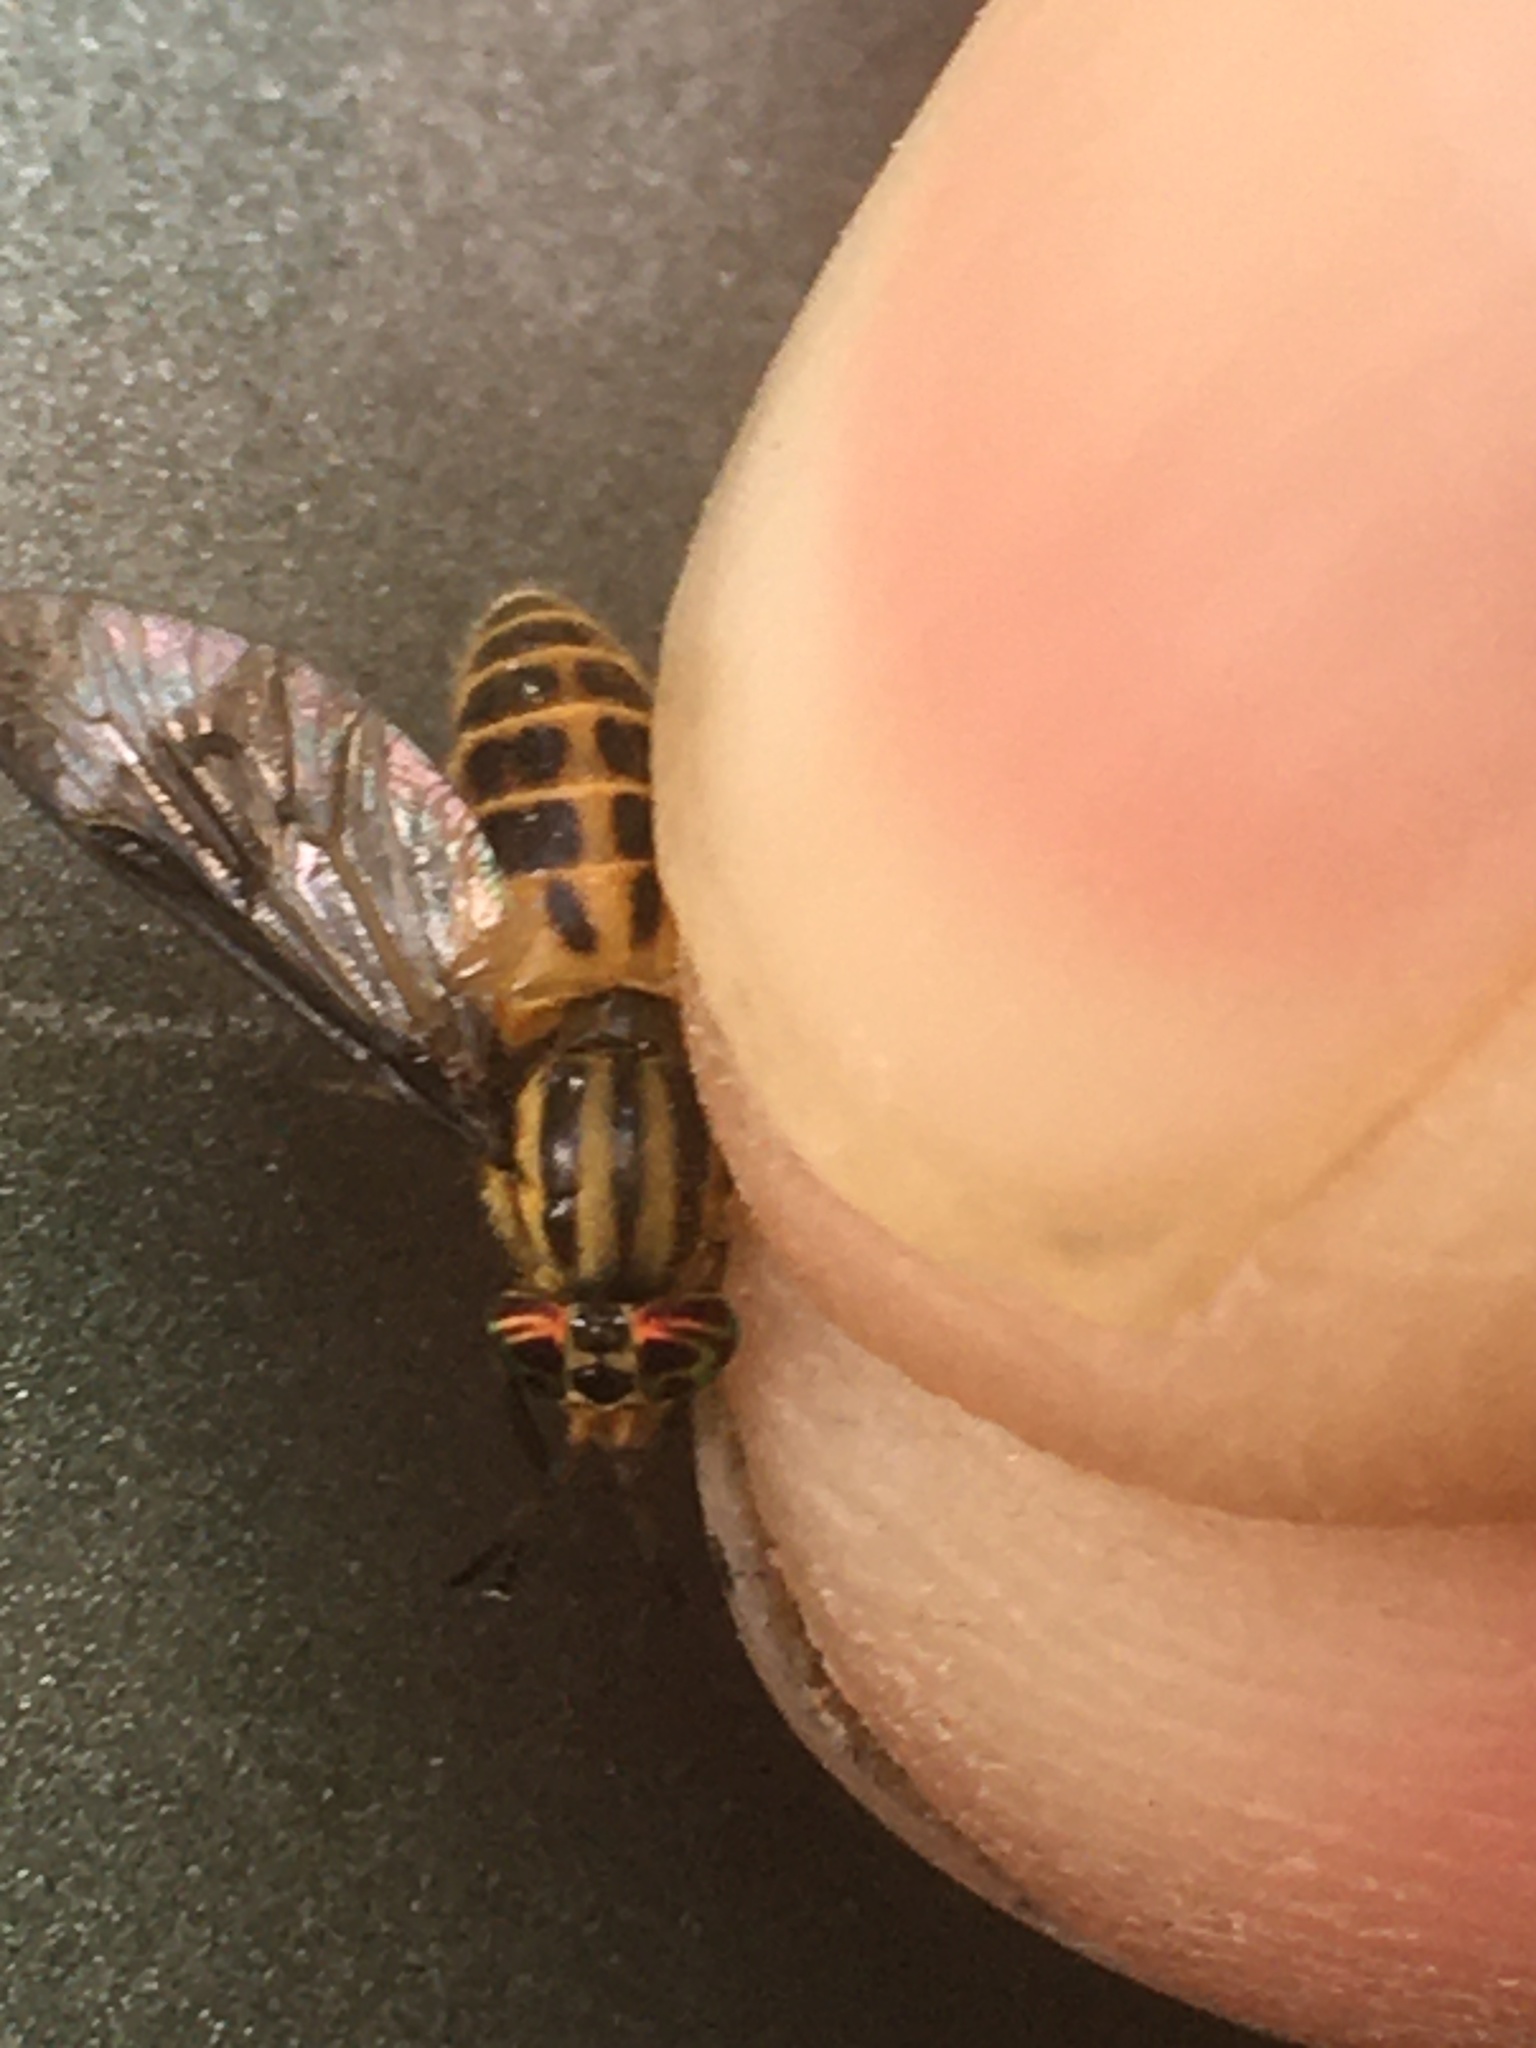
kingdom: Animalia
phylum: Arthropoda
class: Insecta
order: Diptera
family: Tabanidae
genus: Chrysops
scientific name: Chrysops geminatus
